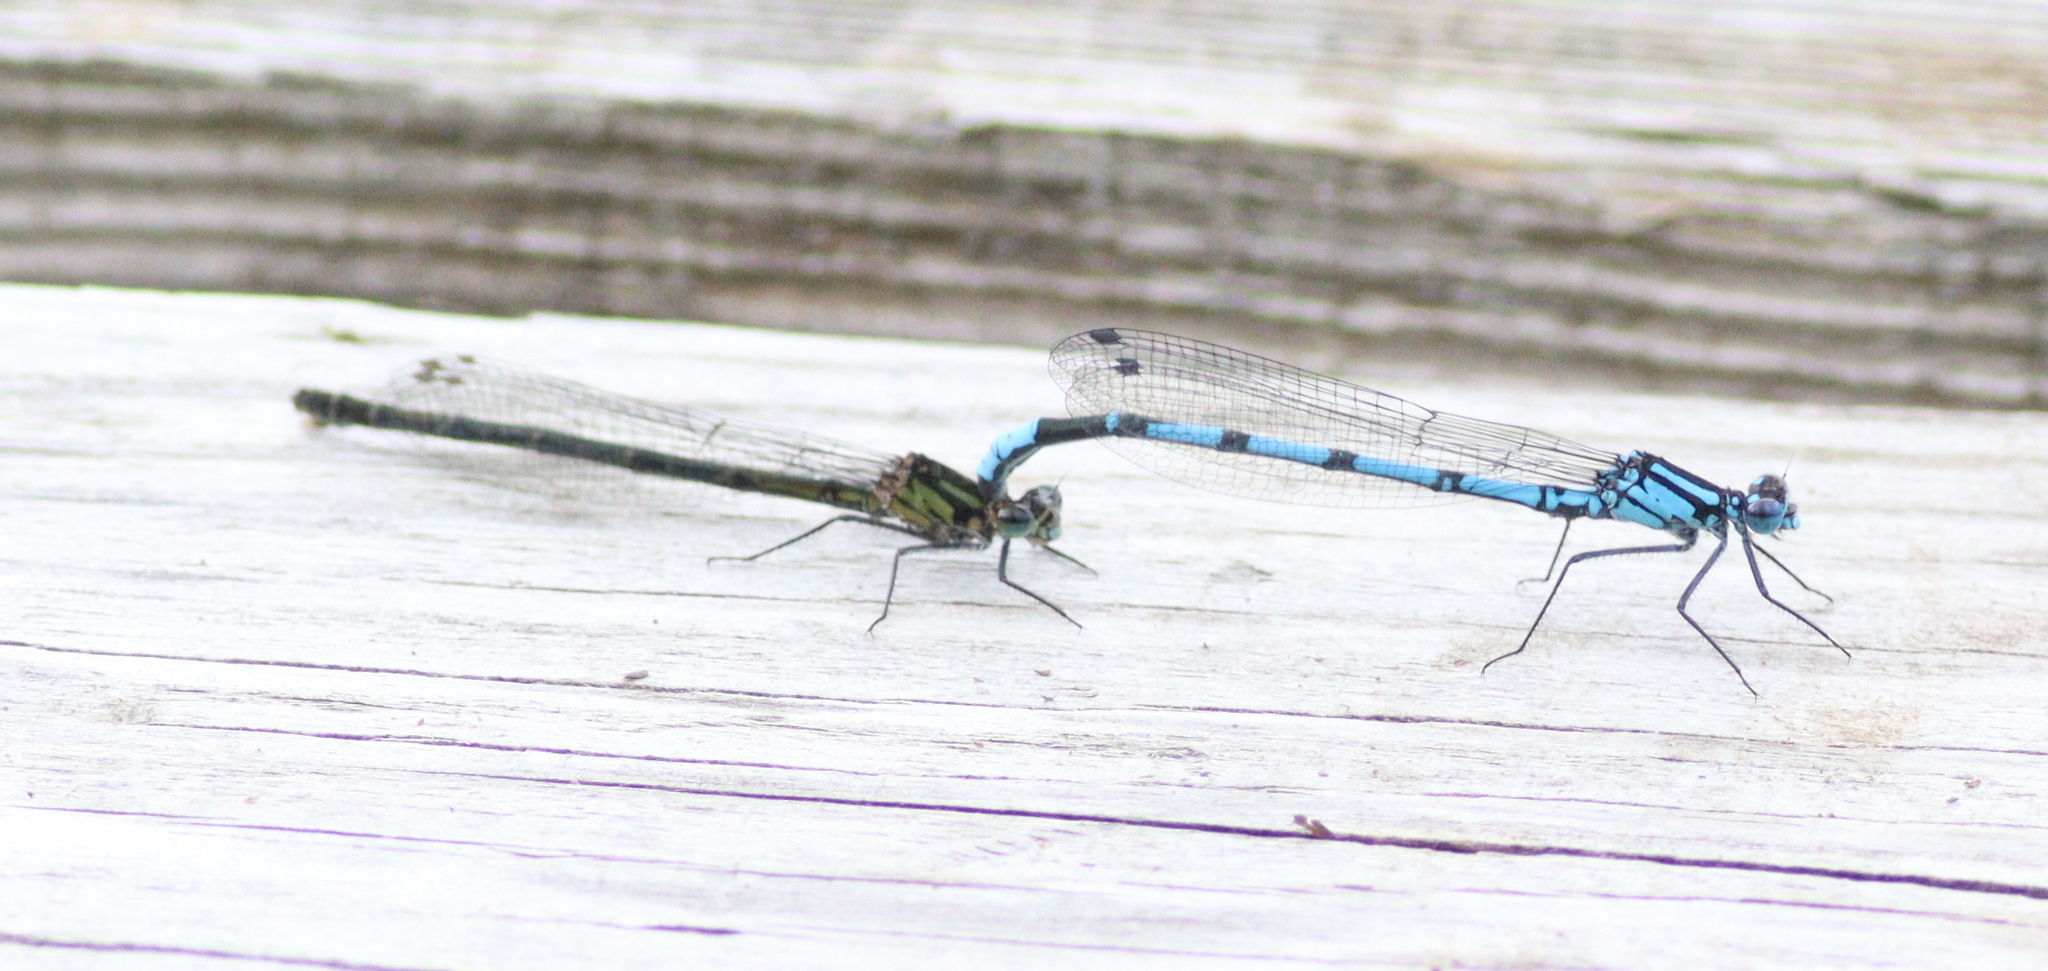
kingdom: Animalia
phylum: Arthropoda
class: Insecta
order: Odonata
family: Coenagrionidae
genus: Enallagma
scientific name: Enallagma circulatum
